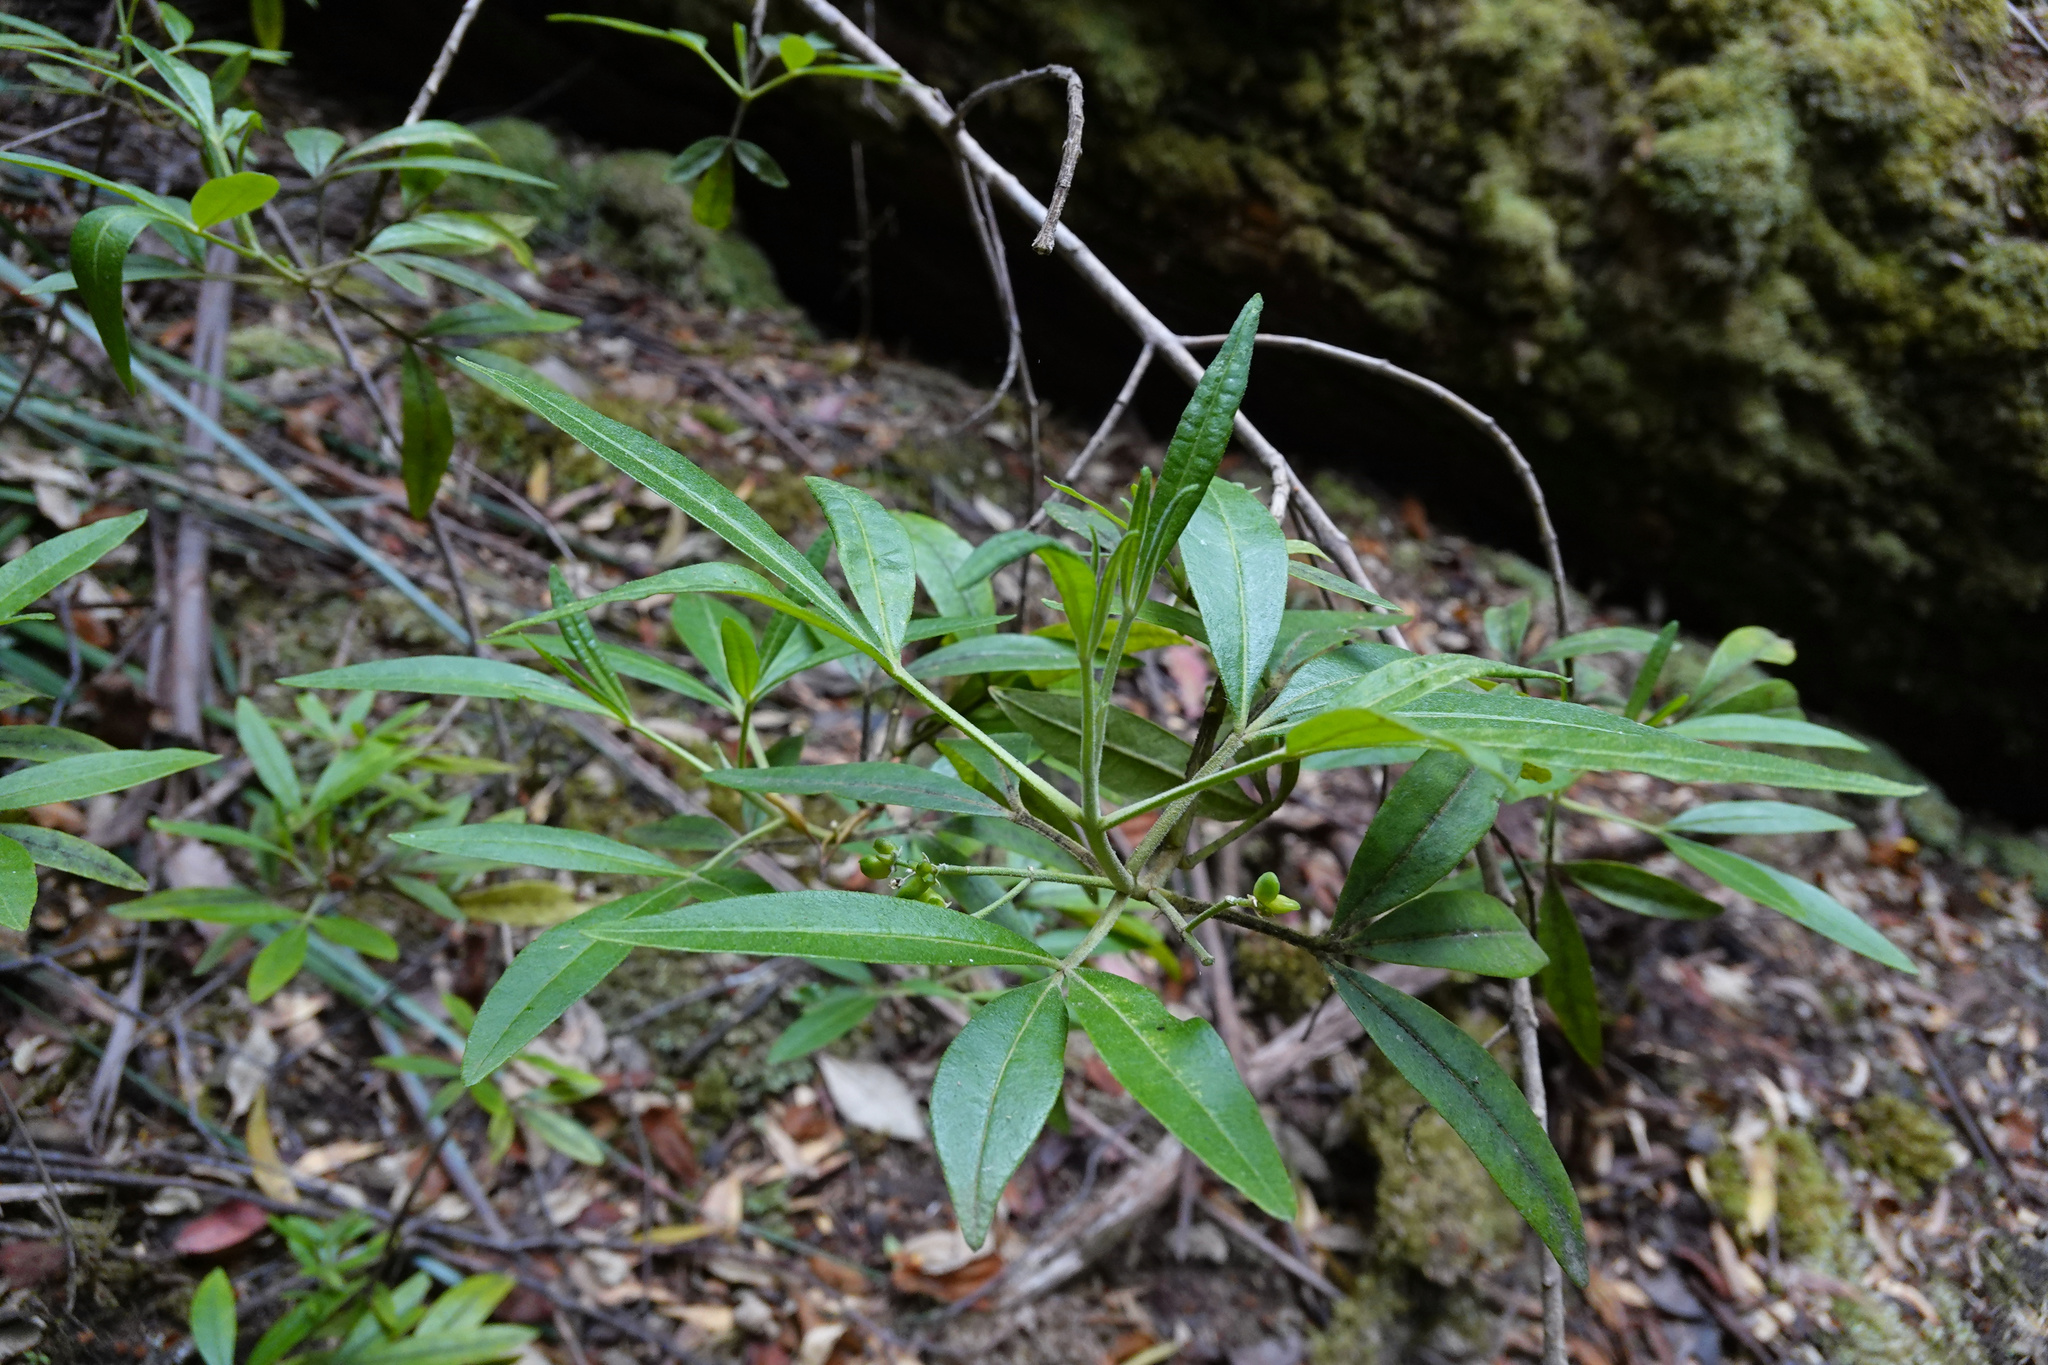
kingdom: Plantae
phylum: Tracheophyta
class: Magnoliopsida
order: Sapindales
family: Rutaceae
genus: Zieria
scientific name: Zieria arborescens
